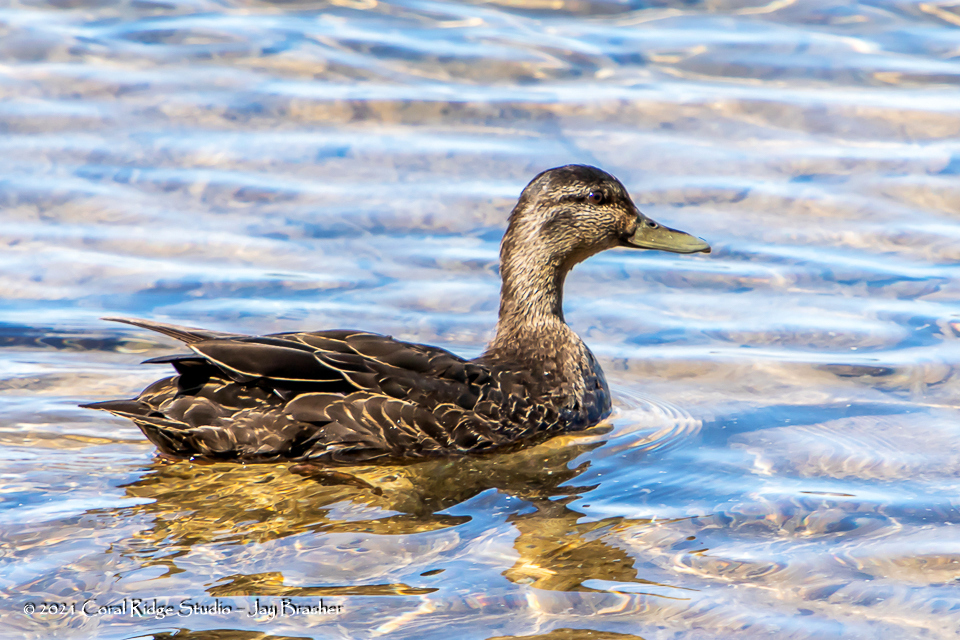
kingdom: Animalia
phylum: Chordata
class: Aves
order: Anseriformes
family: Anatidae
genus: Anas
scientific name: Anas rubripes
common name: American black duck
